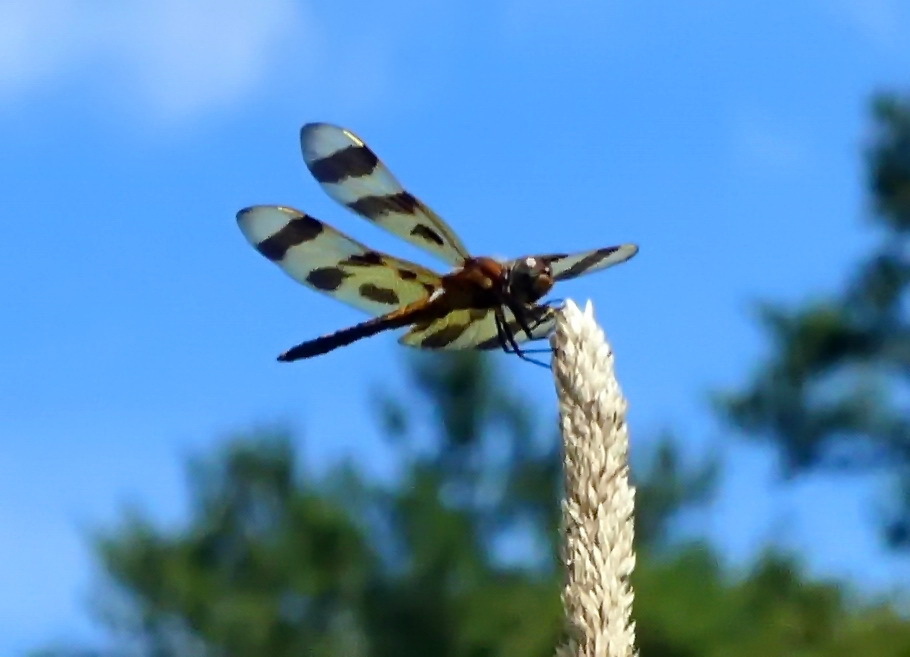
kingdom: Animalia
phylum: Arthropoda
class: Insecta
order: Odonata
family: Libellulidae
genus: Celithemis
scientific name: Celithemis eponina
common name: Halloween pennant
